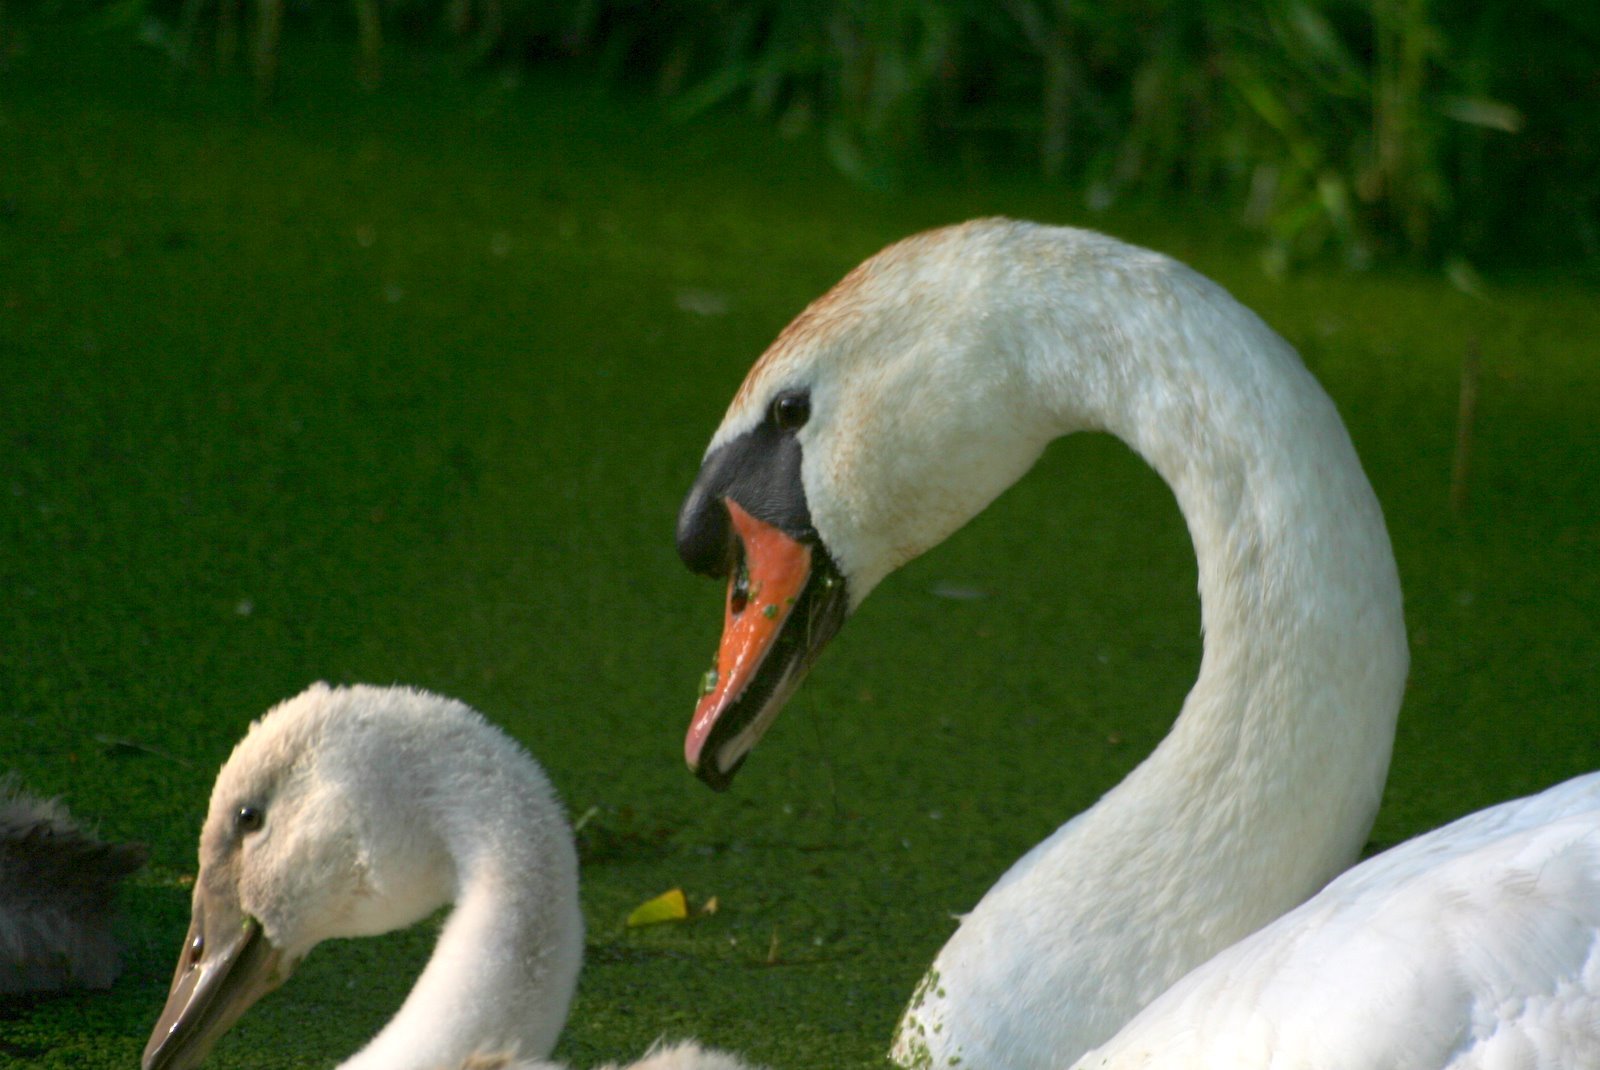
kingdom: Animalia
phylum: Chordata
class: Aves
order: Anseriformes
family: Anatidae
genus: Cygnus
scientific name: Cygnus olor
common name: Mute swan
